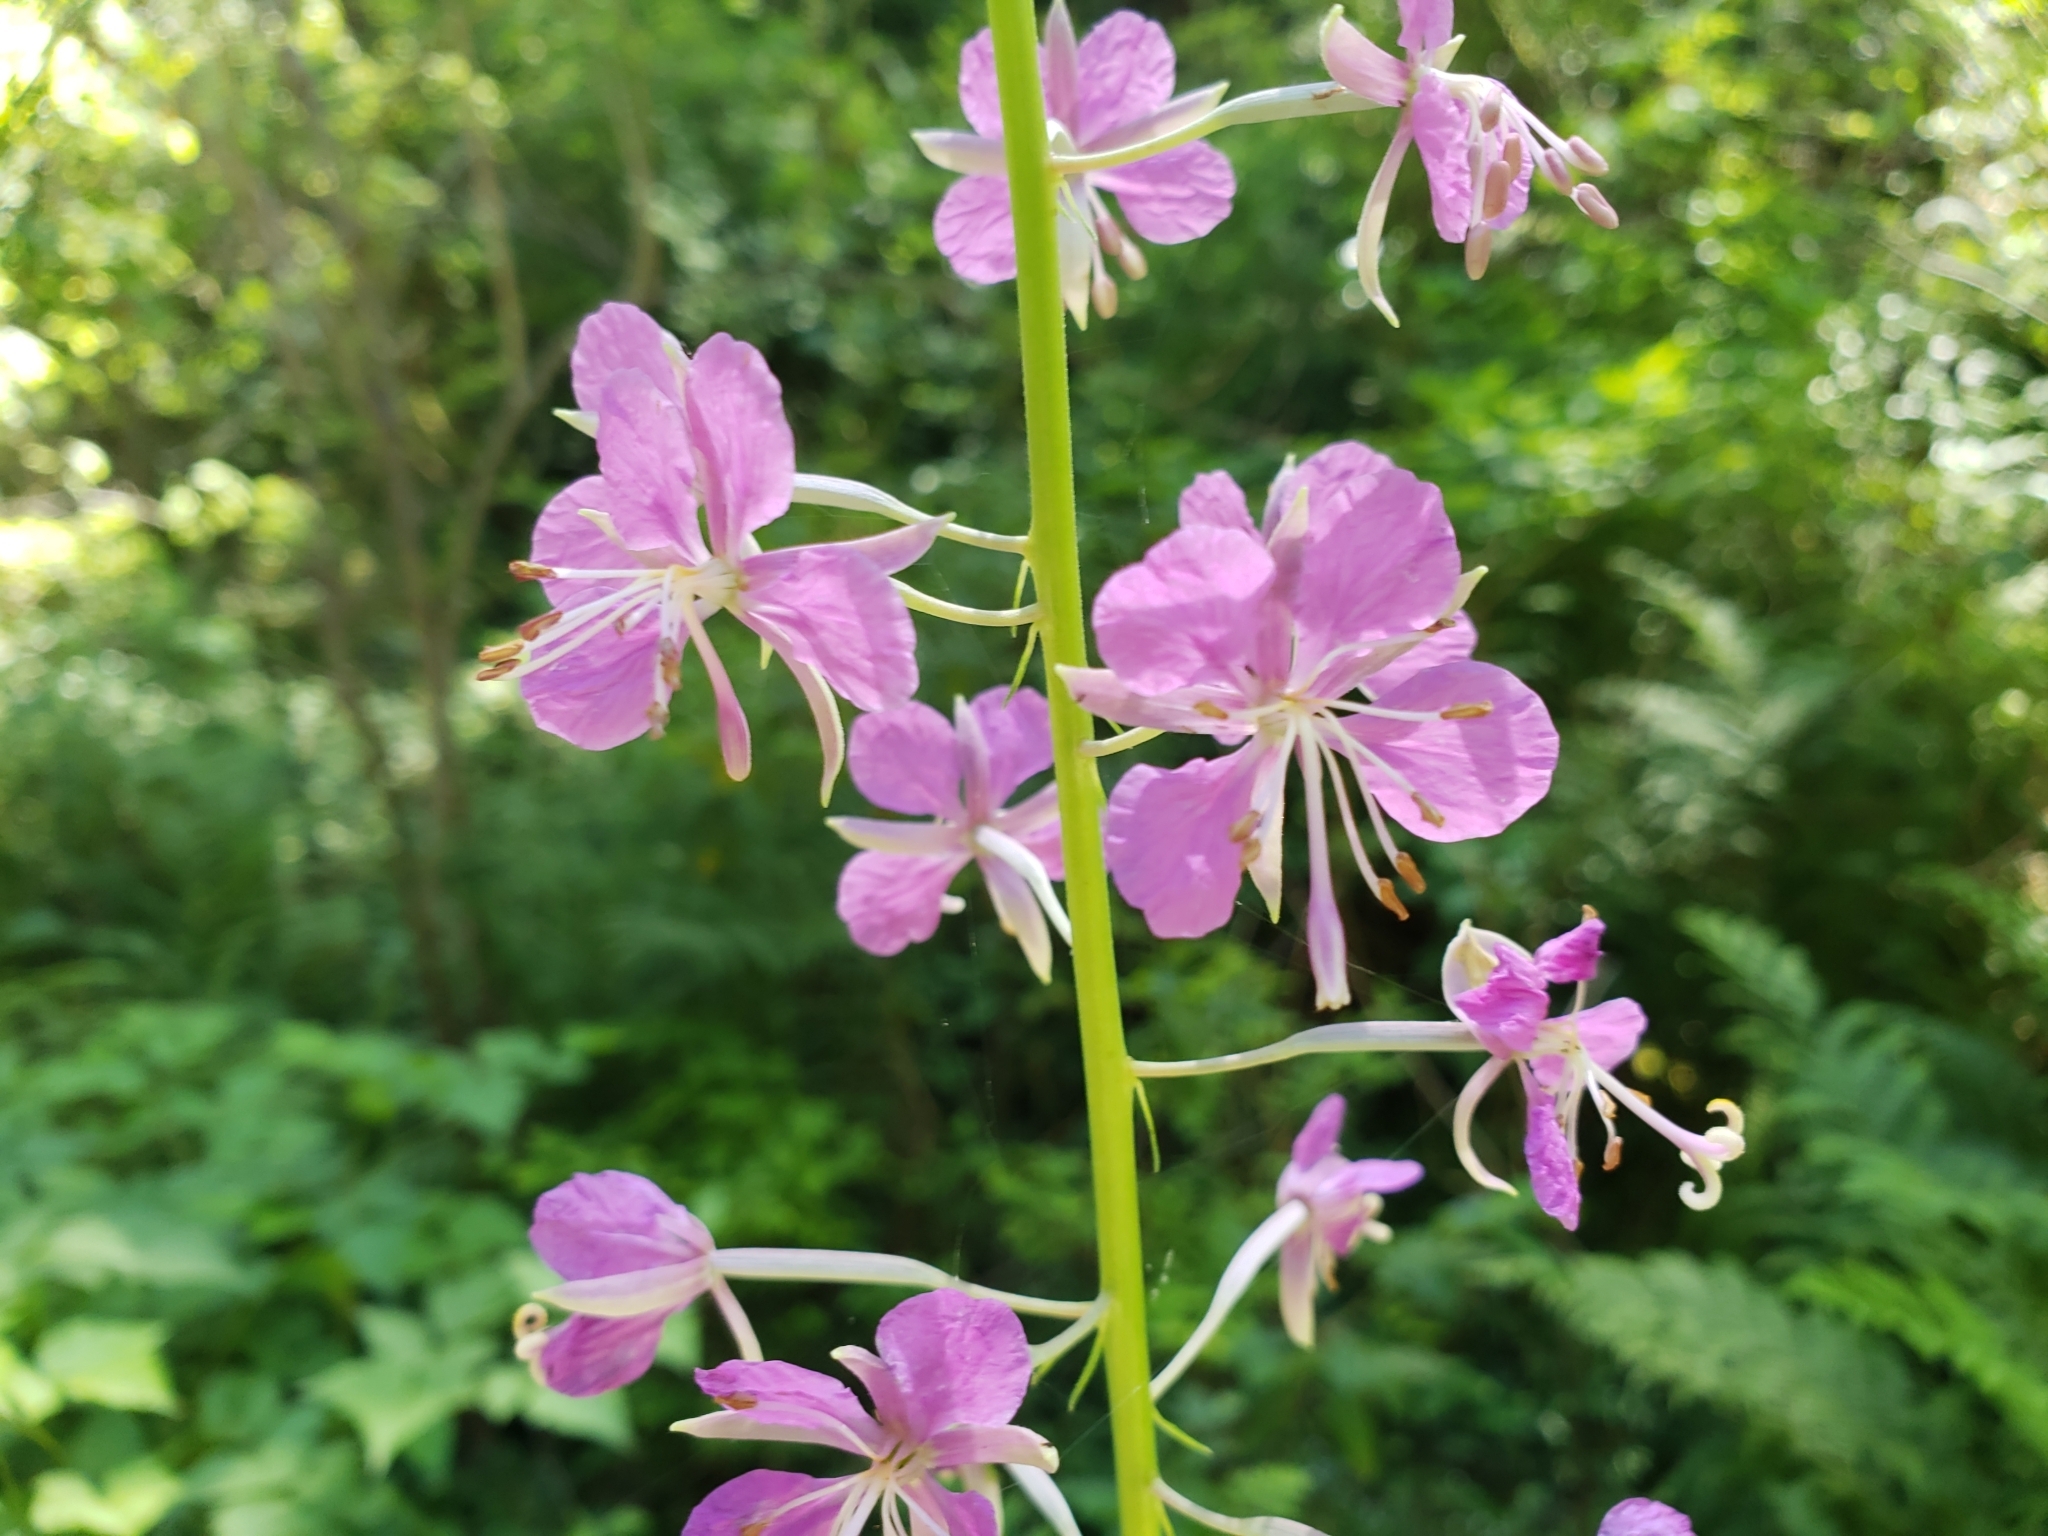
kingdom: Plantae
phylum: Tracheophyta
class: Magnoliopsida
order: Myrtales
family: Onagraceae
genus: Chamaenerion
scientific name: Chamaenerion angustifolium
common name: Fireweed
